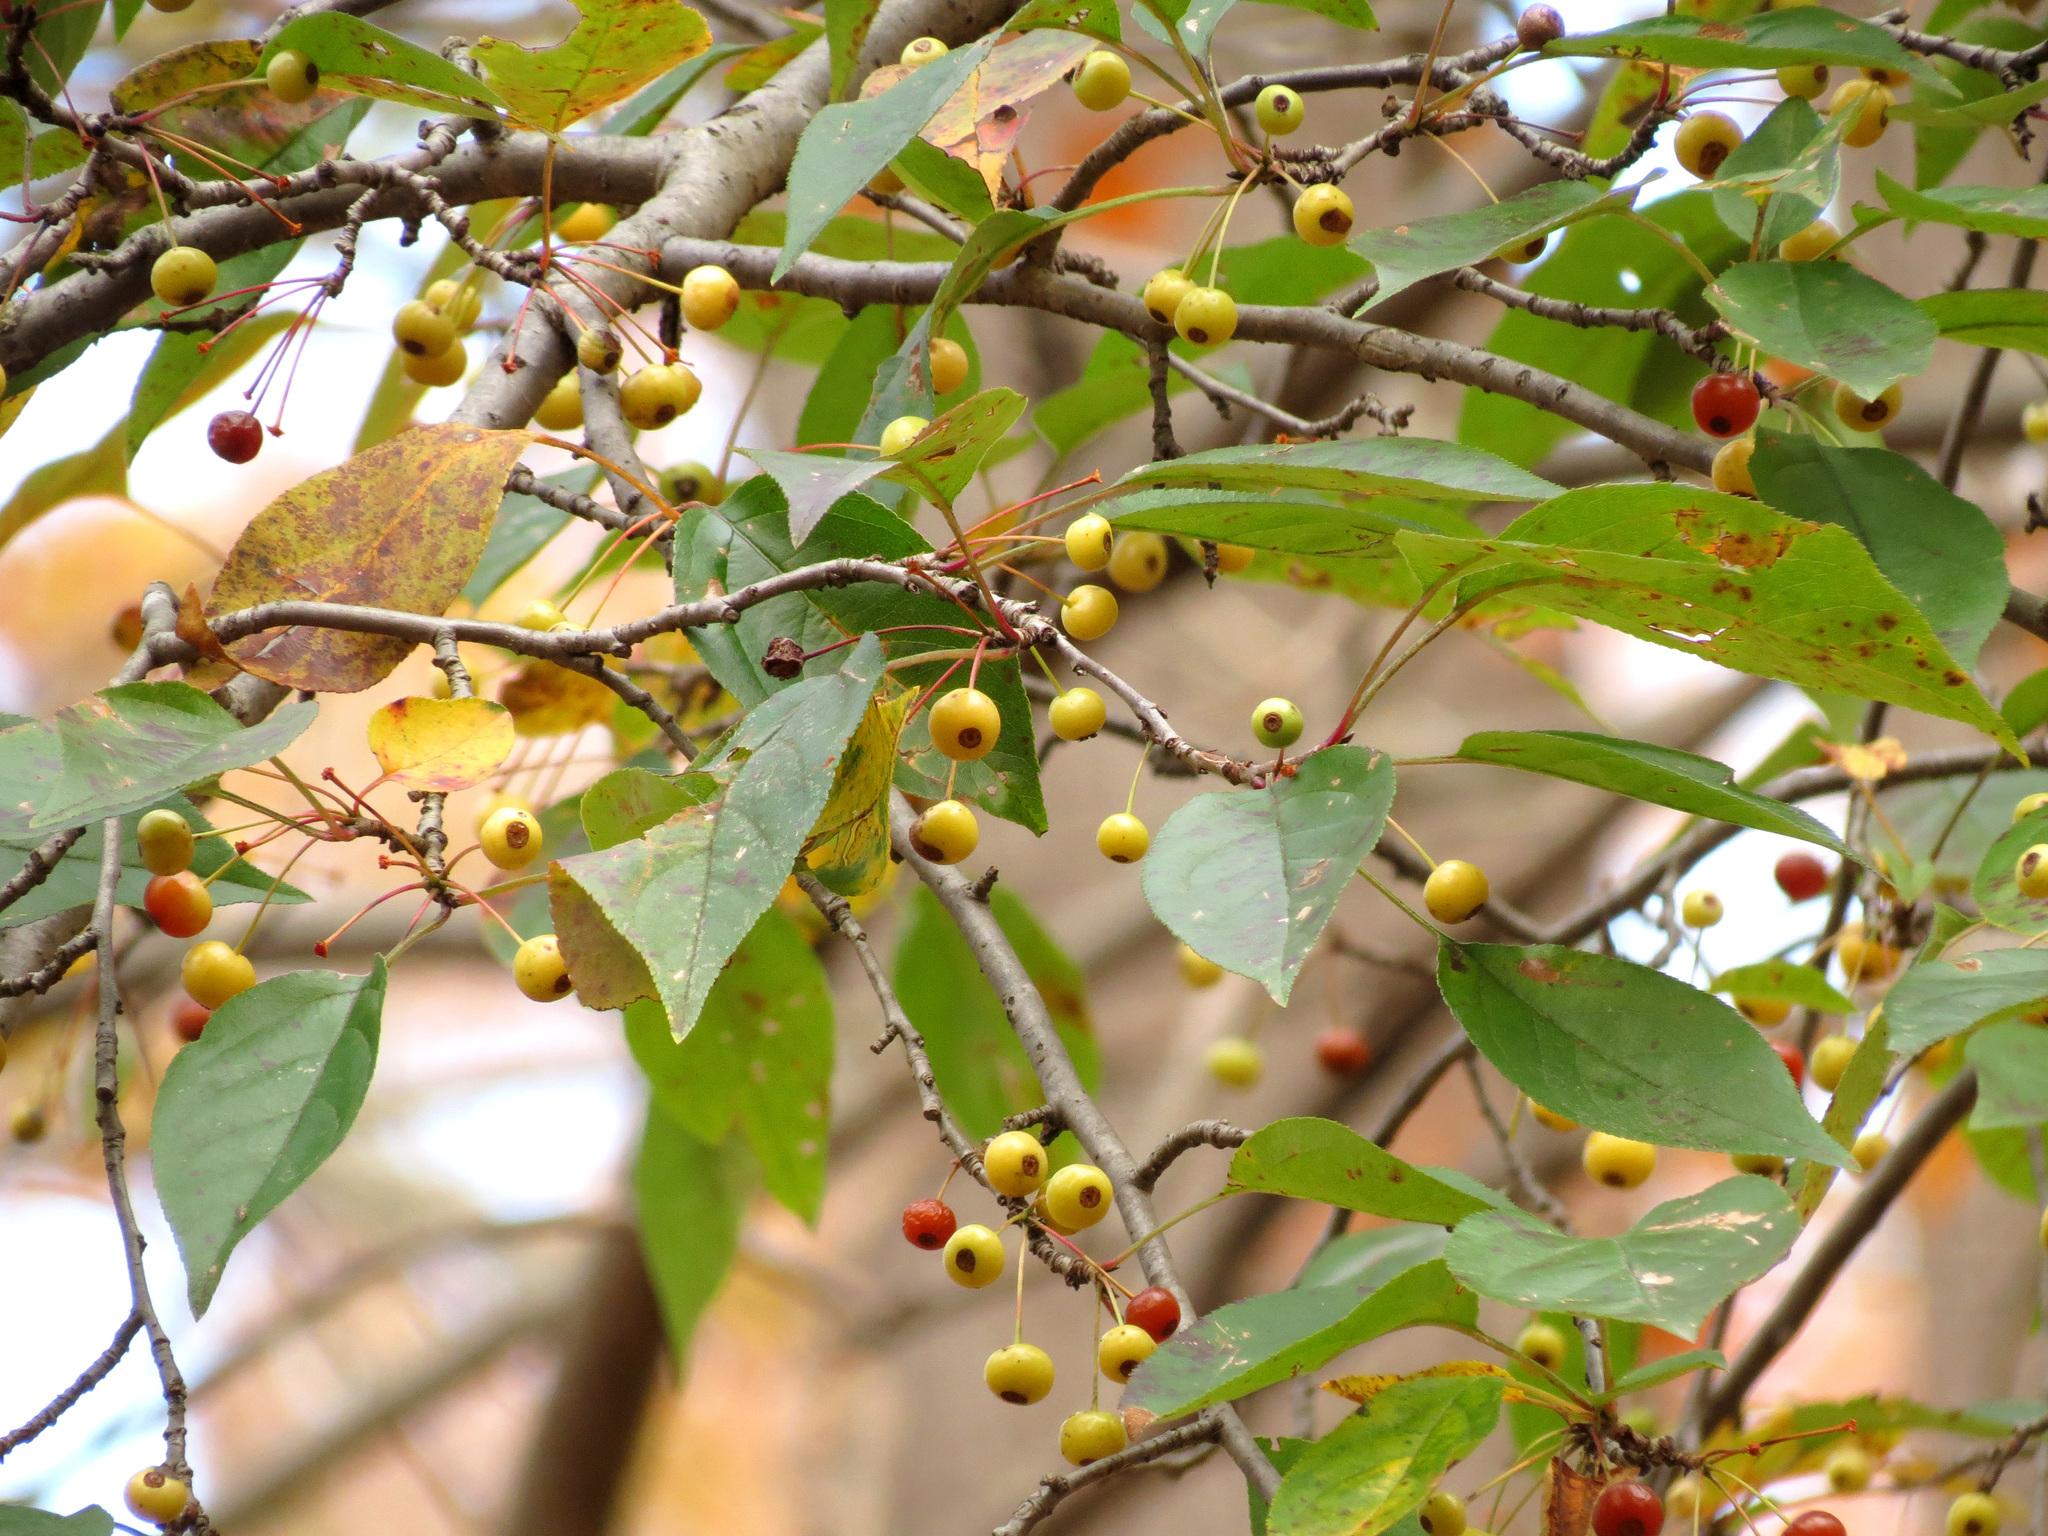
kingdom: Plantae
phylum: Tracheophyta
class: Magnoliopsida
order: Rosales
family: Rosaceae
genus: Malus
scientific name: Malus baccata
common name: Siberian crab
